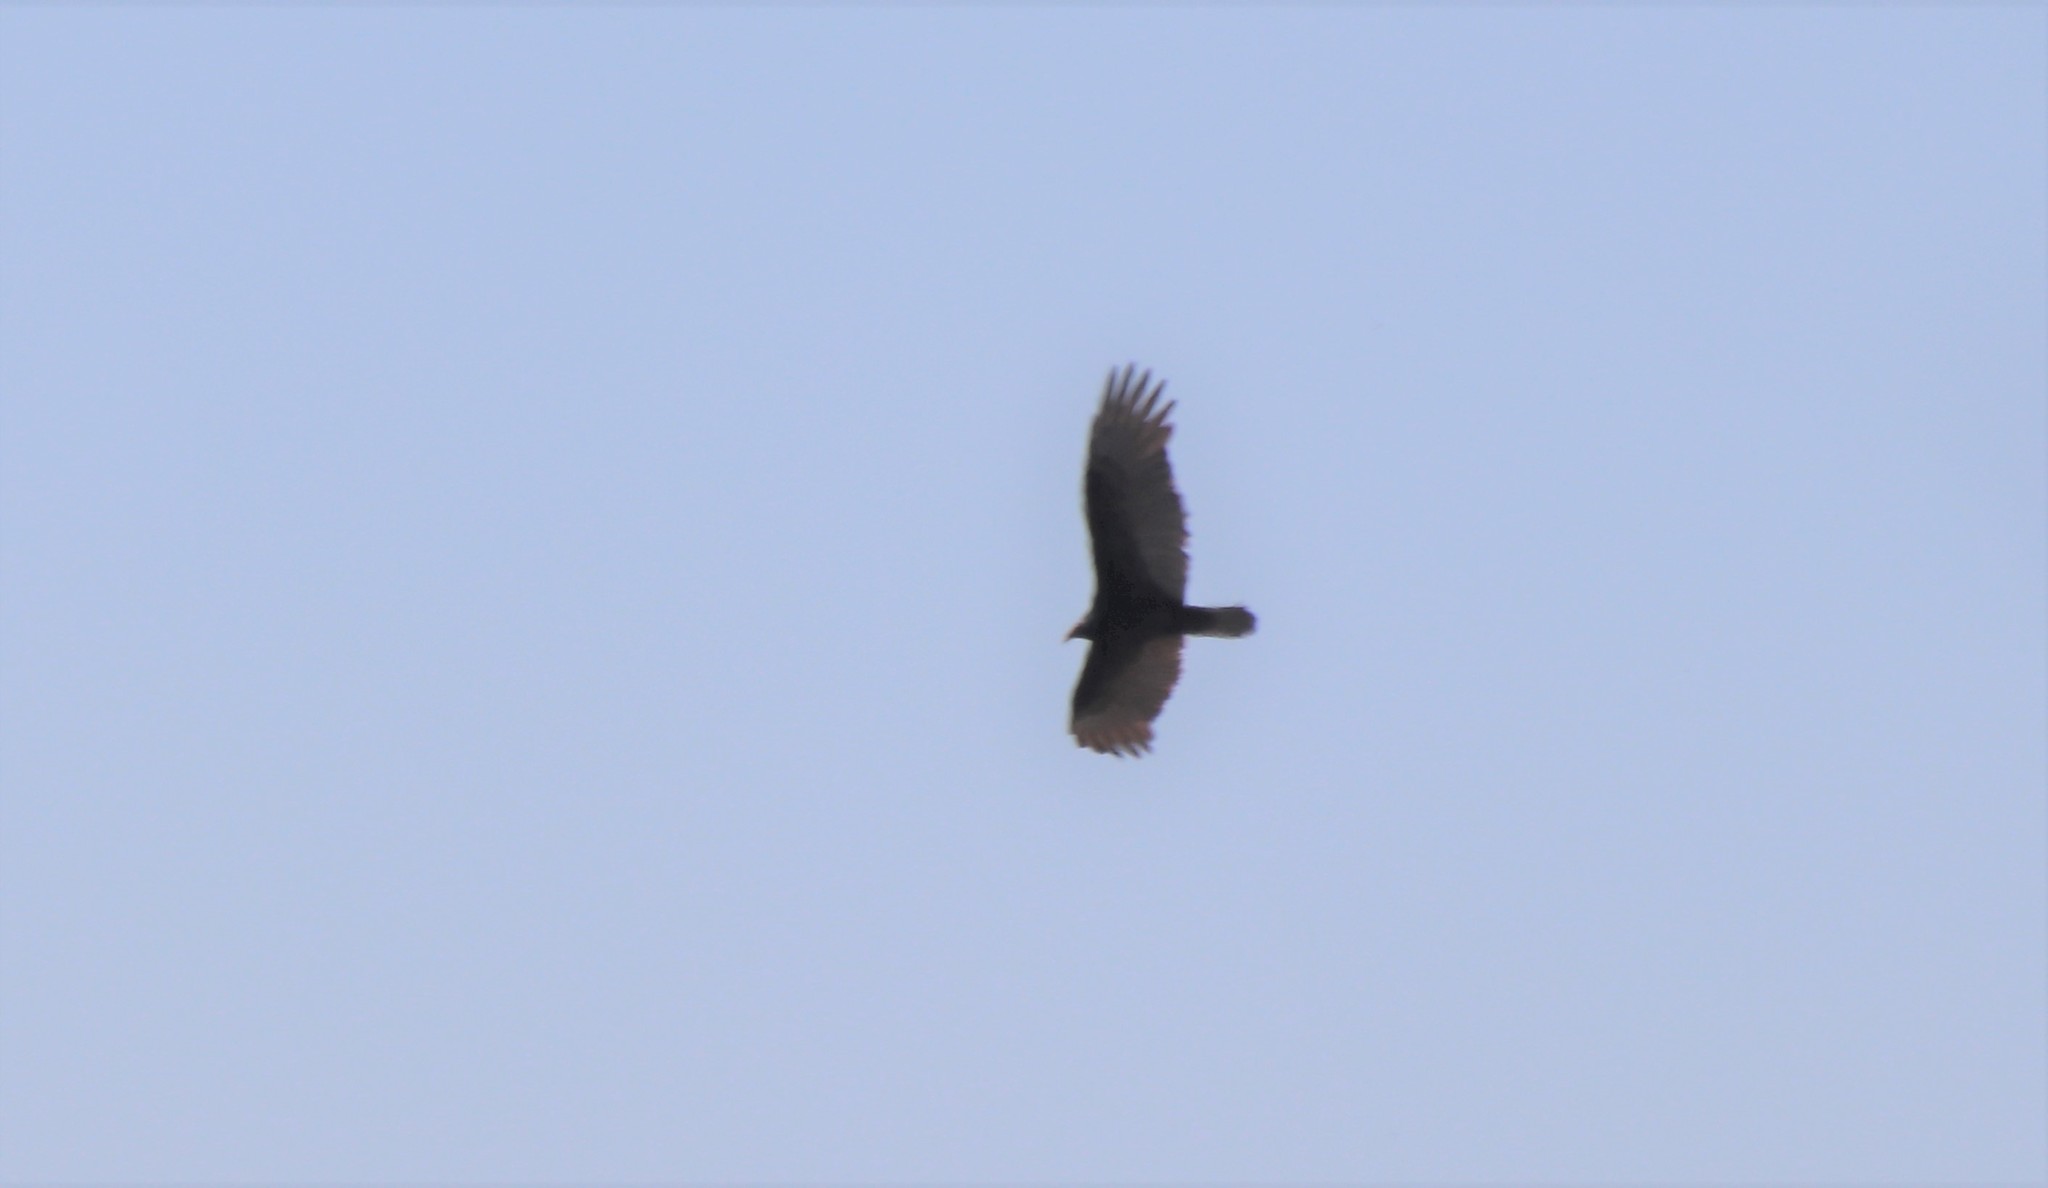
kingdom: Animalia
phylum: Chordata
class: Aves
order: Accipitriformes
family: Cathartidae
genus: Cathartes
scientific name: Cathartes aura
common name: Turkey vulture
